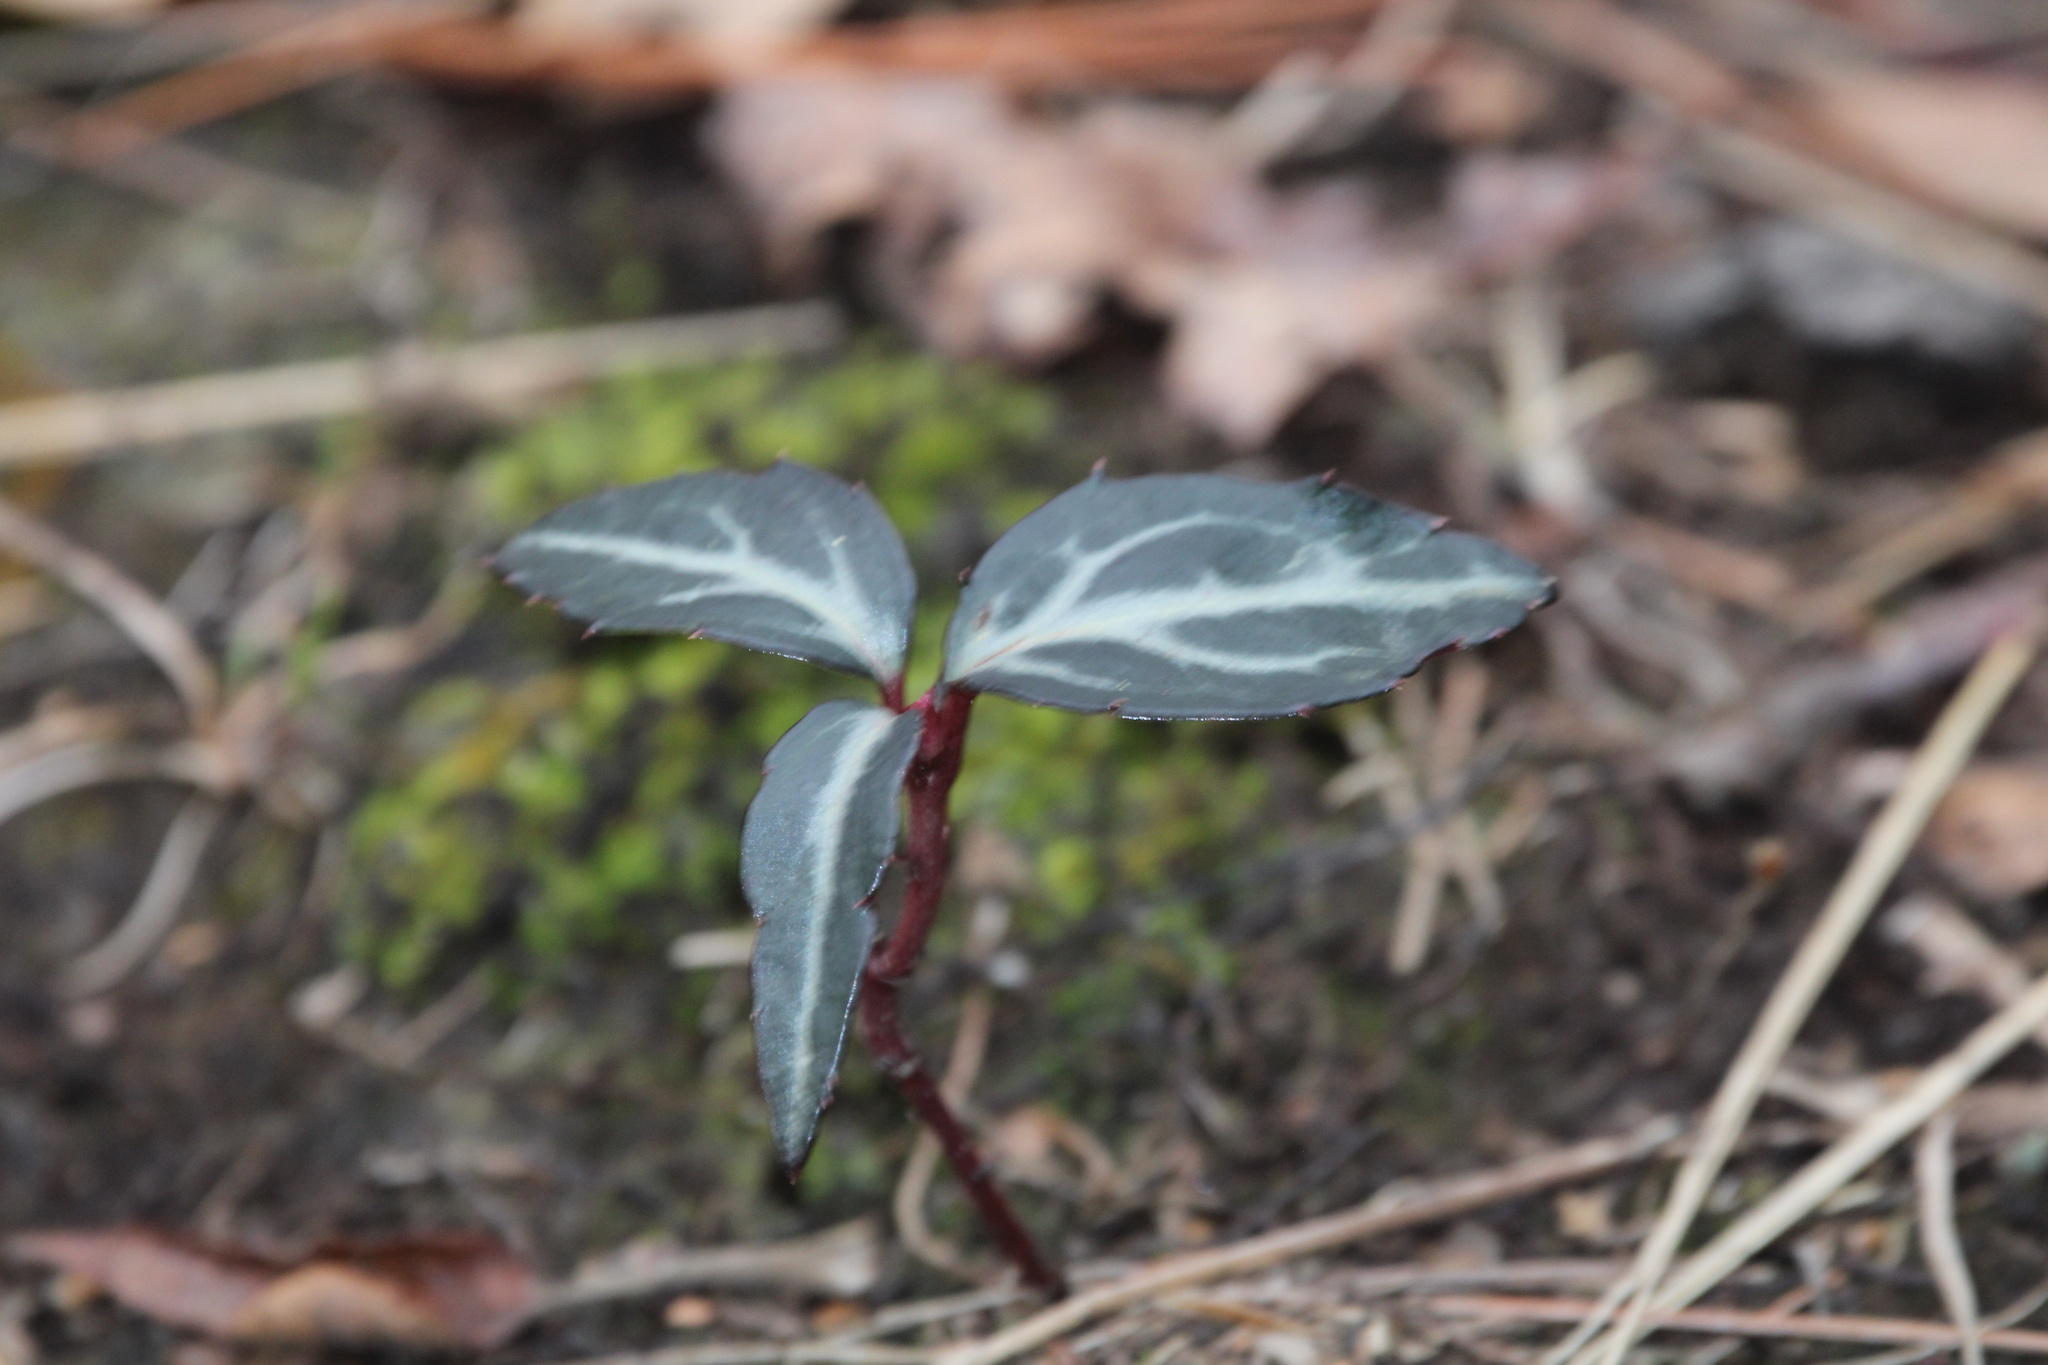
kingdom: Plantae
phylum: Tracheophyta
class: Magnoliopsida
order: Ericales
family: Ericaceae
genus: Chimaphila
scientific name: Chimaphila maculata
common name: Spotted pipsissewa
